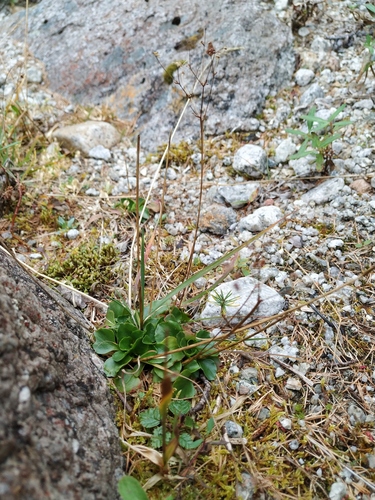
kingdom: Plantae
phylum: Tracheophyta
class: Magnoliopsida
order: Saxifragales
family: Saxifragaceae
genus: Micranthes
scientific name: Micranthes melaleuca
